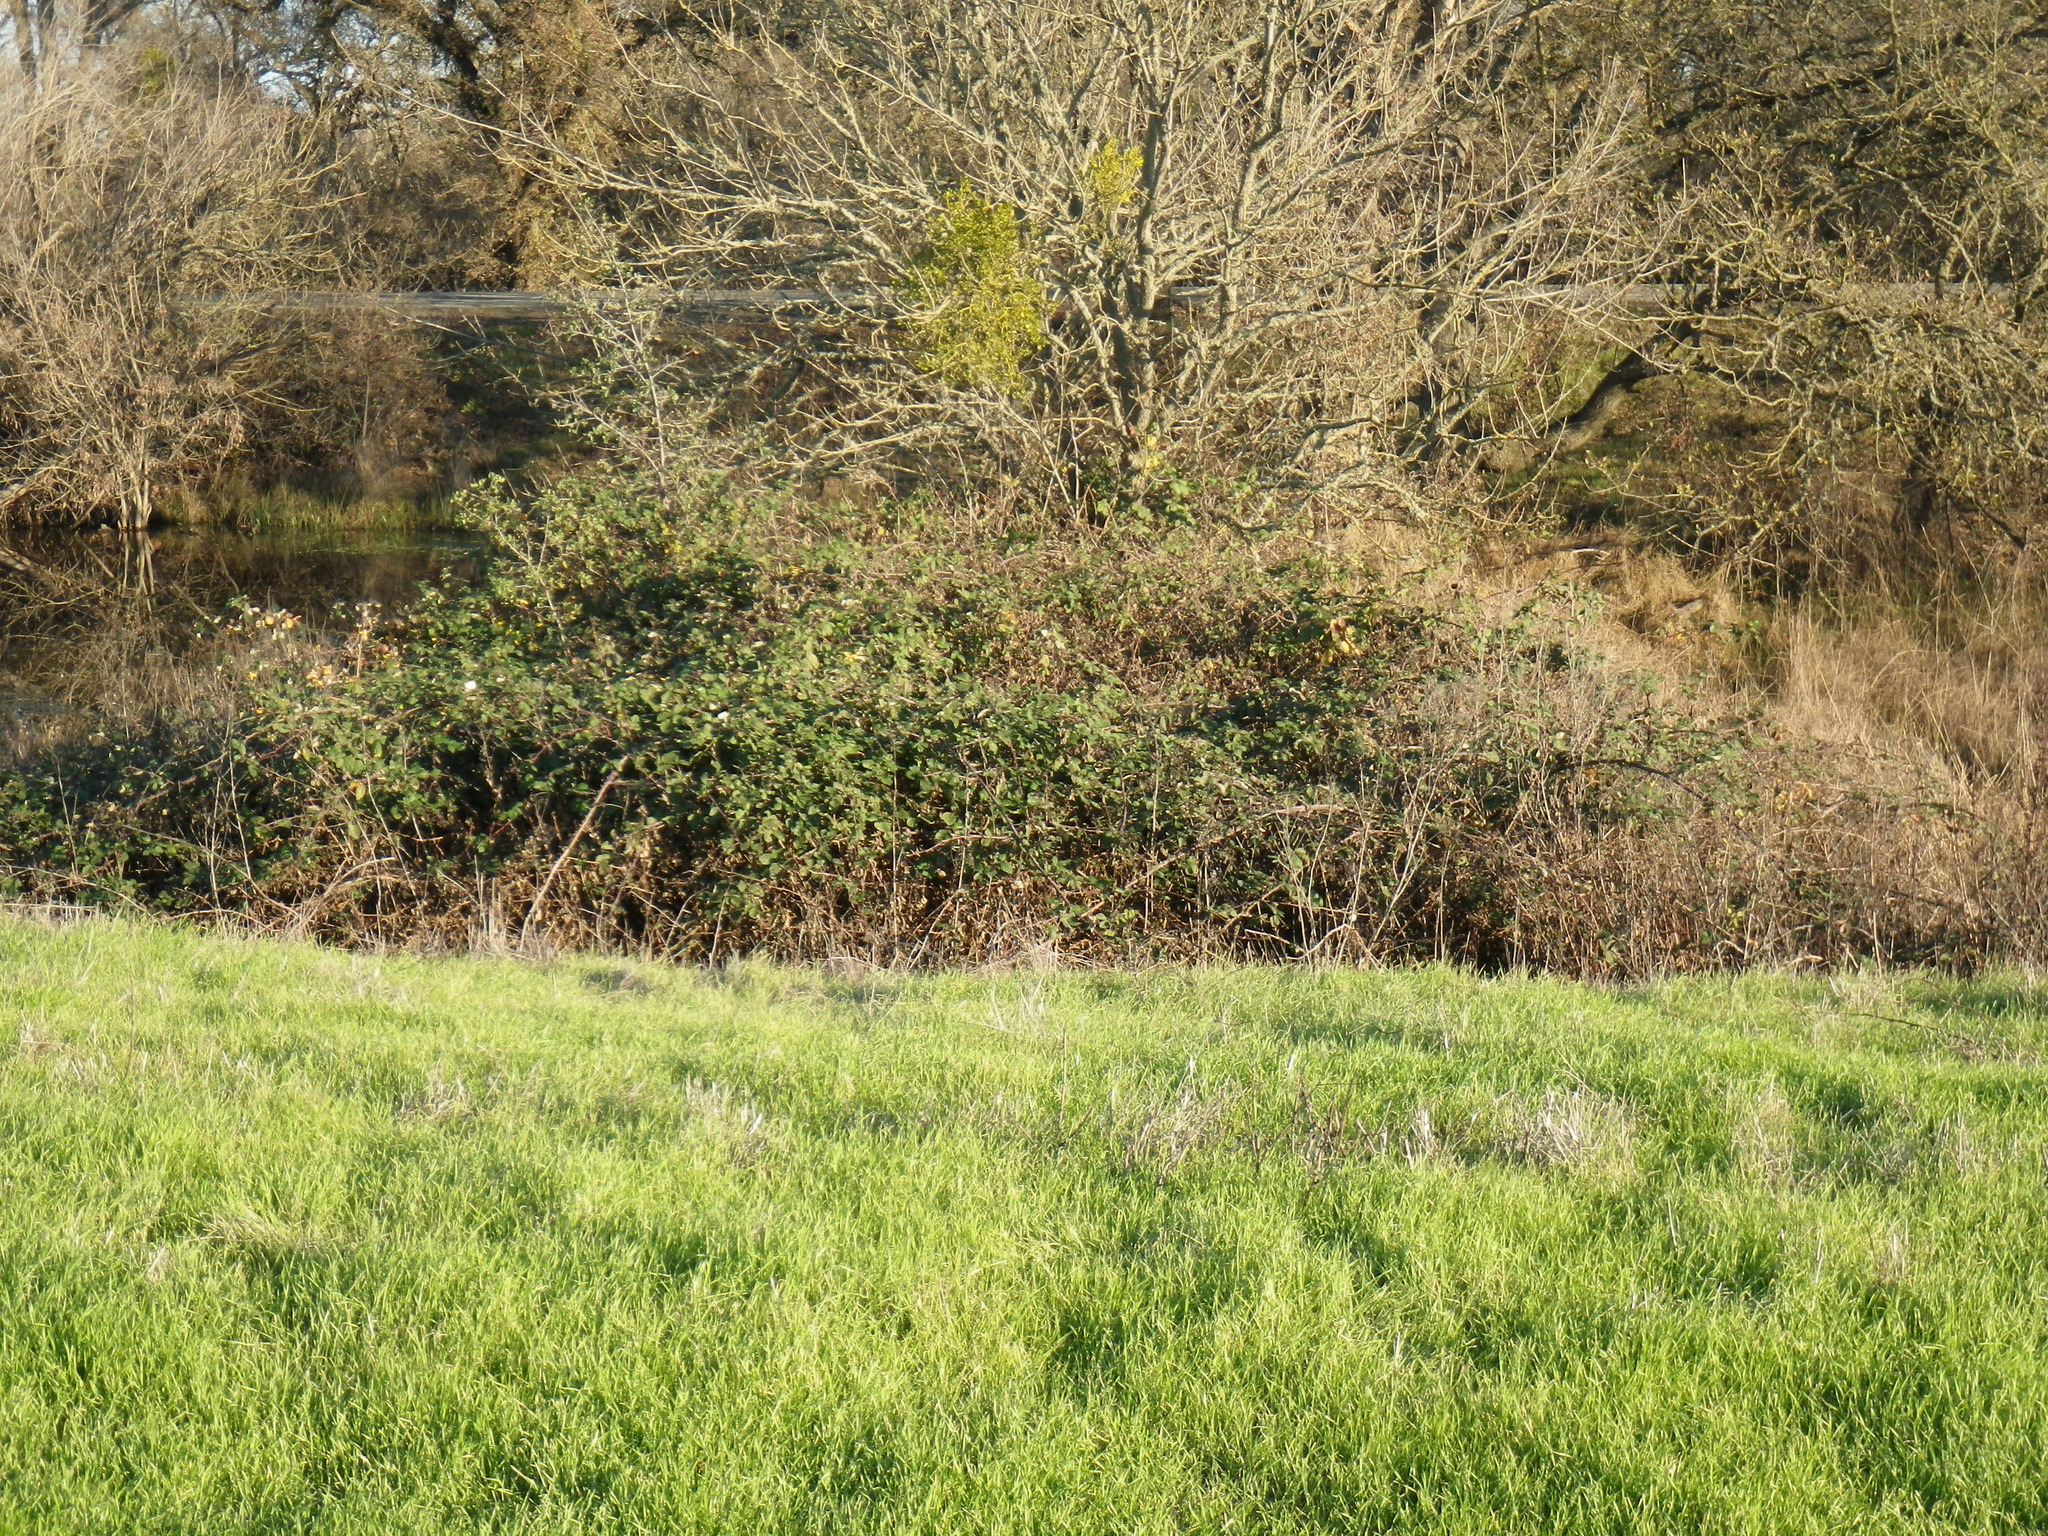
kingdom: Plantae
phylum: Tracheophyta
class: Magnoliopsida
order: Rosales
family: Rosaceae
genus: Rubus
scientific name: Rubus armeniacus
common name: Himalayan blackberry
